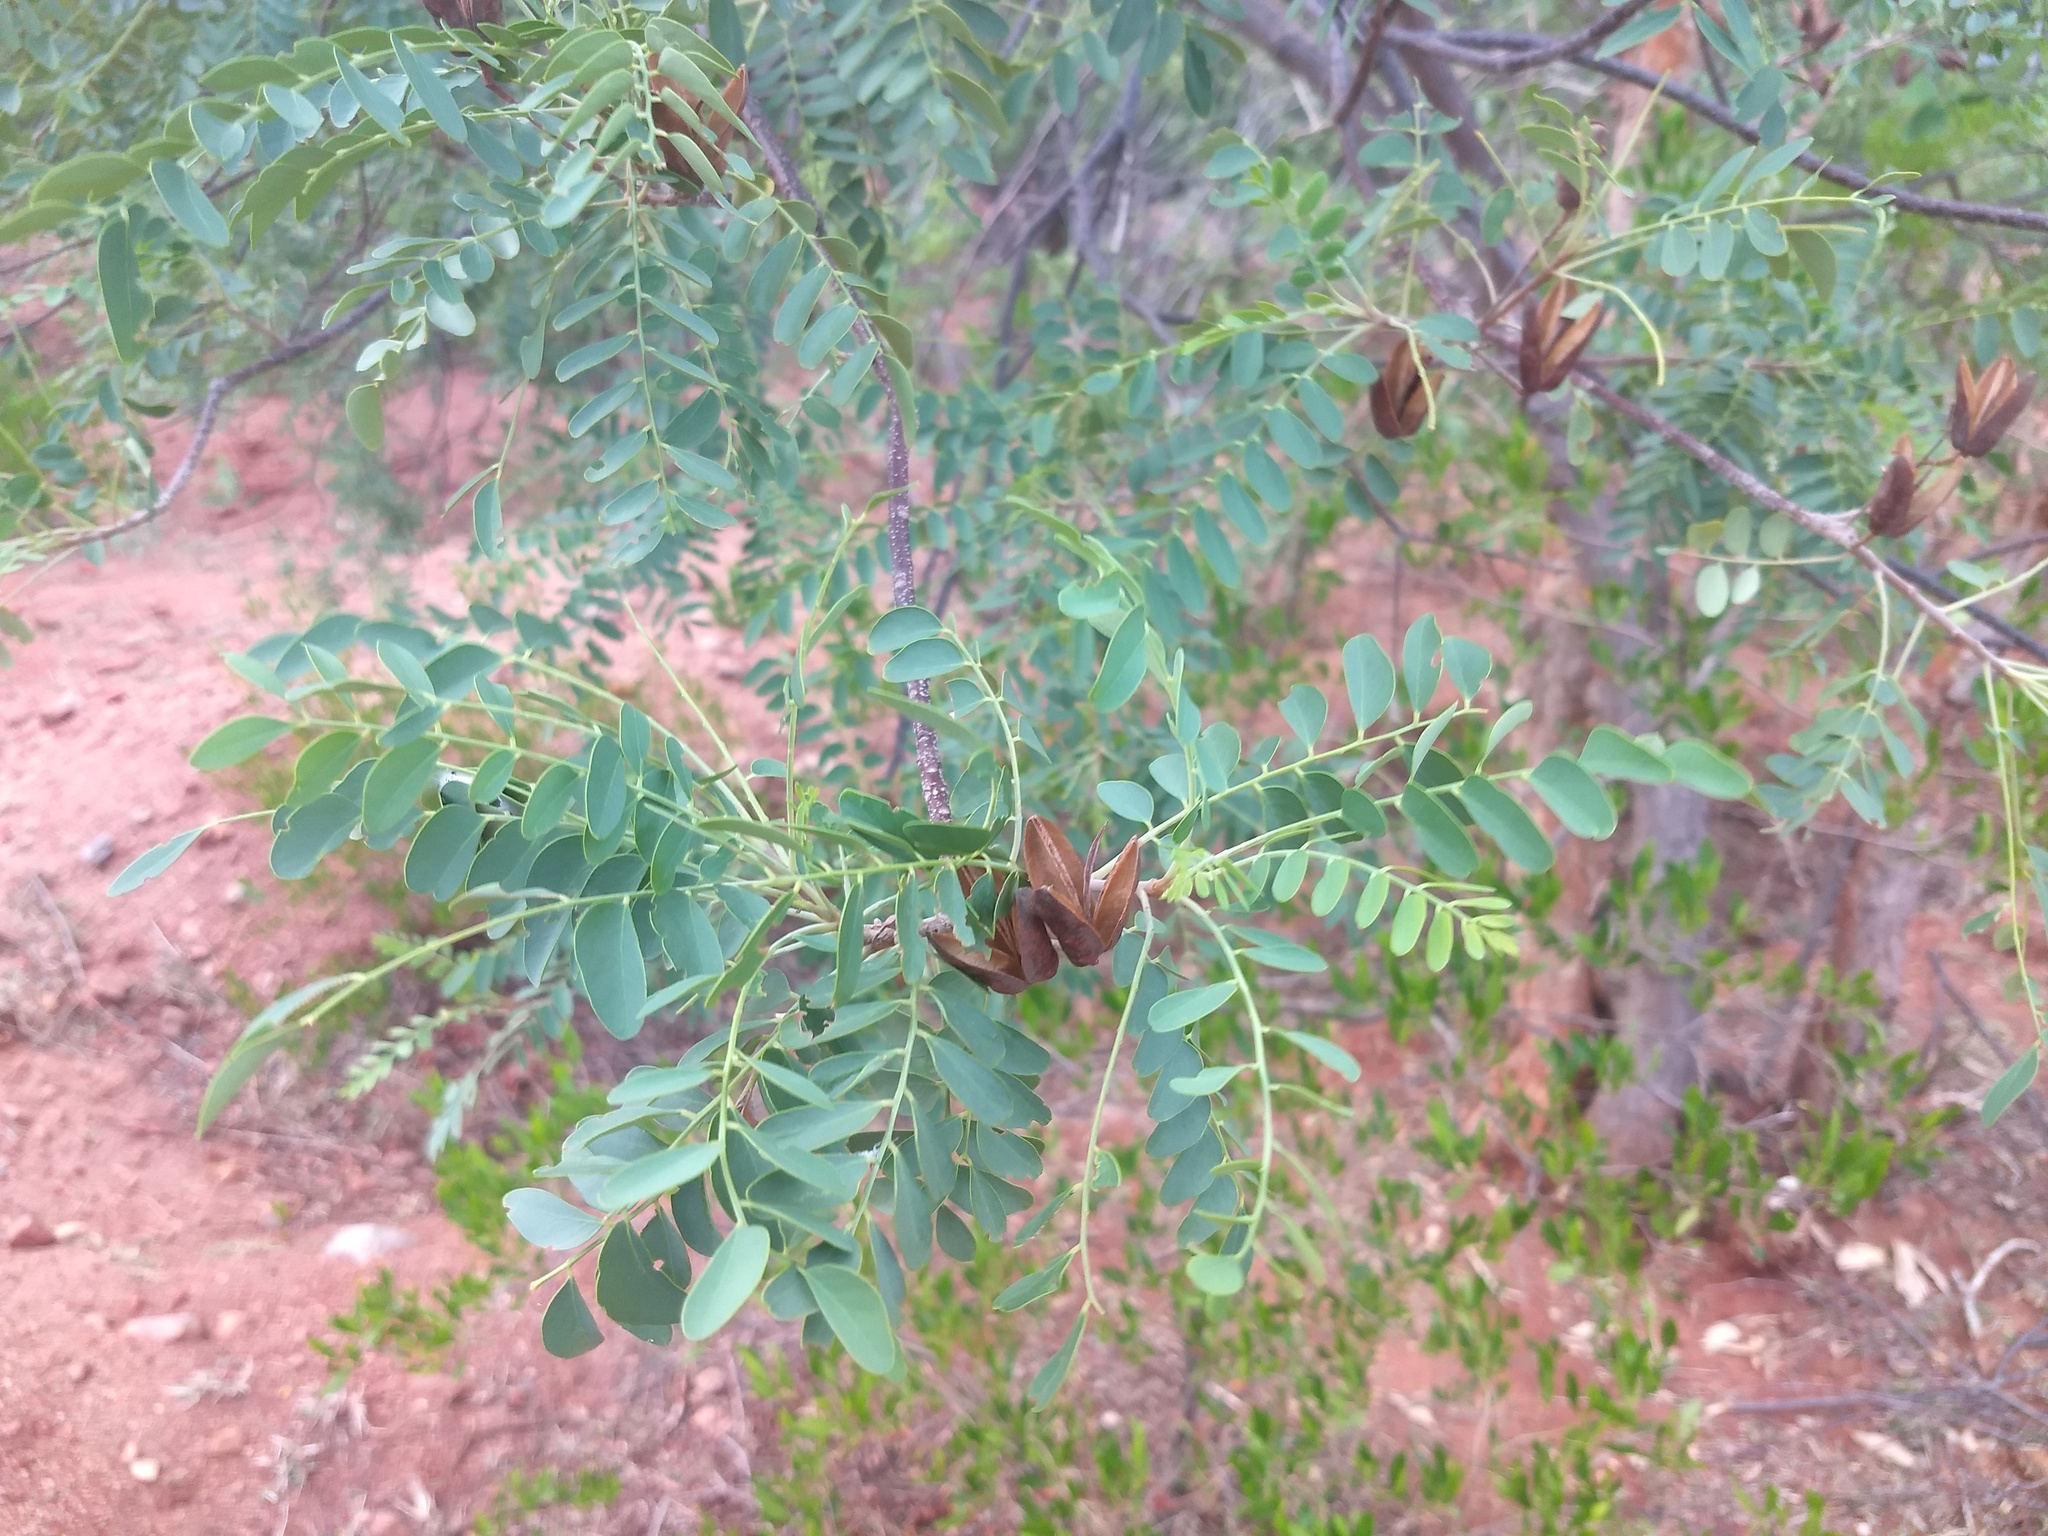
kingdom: Plantae
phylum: Tracheophyta
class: Magnoliopsida
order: Sapindales
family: Rutaceae
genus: Chloroxylon
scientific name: Chloroxylon swietenia
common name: East indian satinwood
